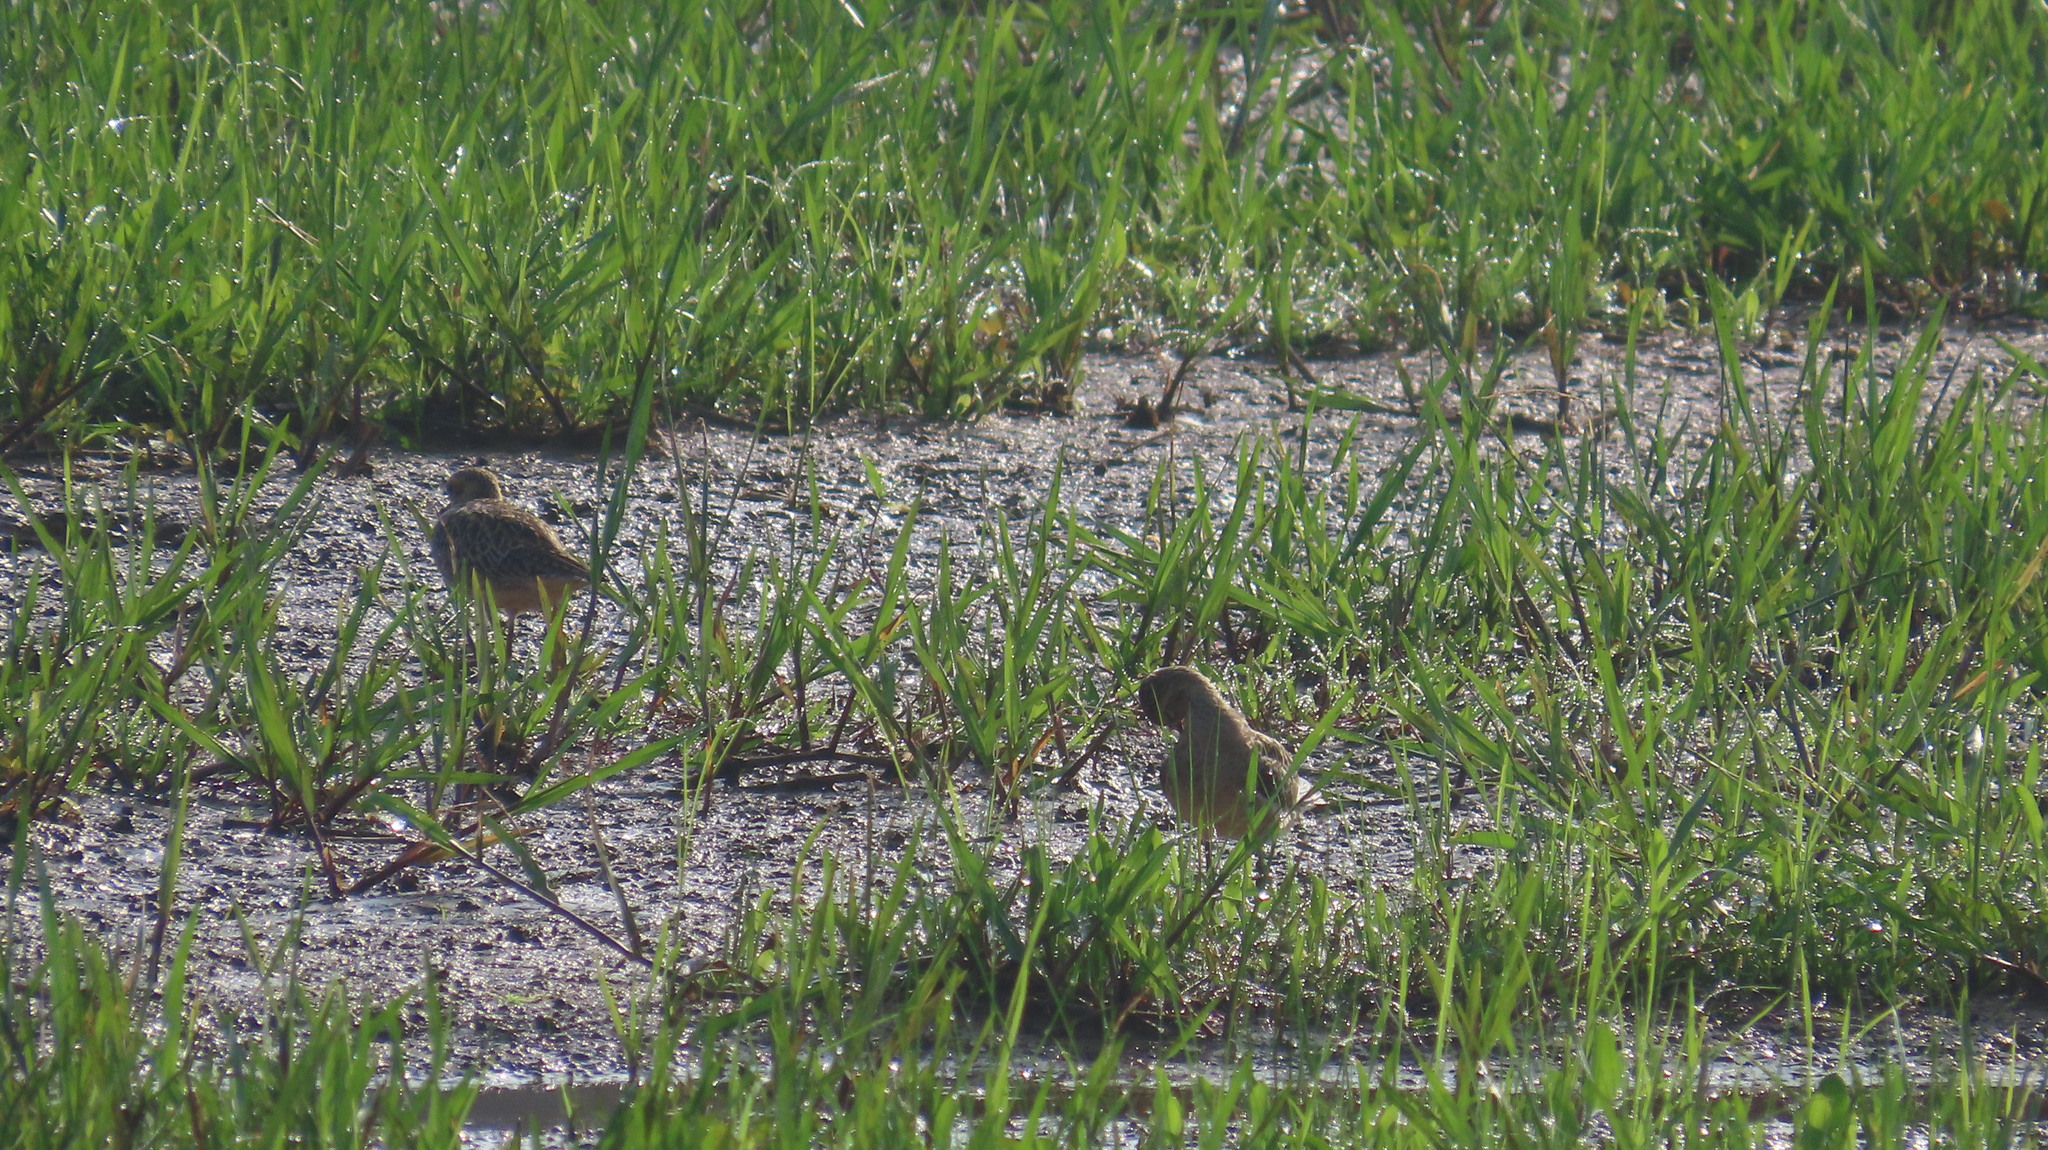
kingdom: Animalia
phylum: Chordata
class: Aves
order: Charadriiformes
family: Charadriidae
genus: Pluvialis
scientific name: Pluvialis fulva
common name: Pacific golden plover
